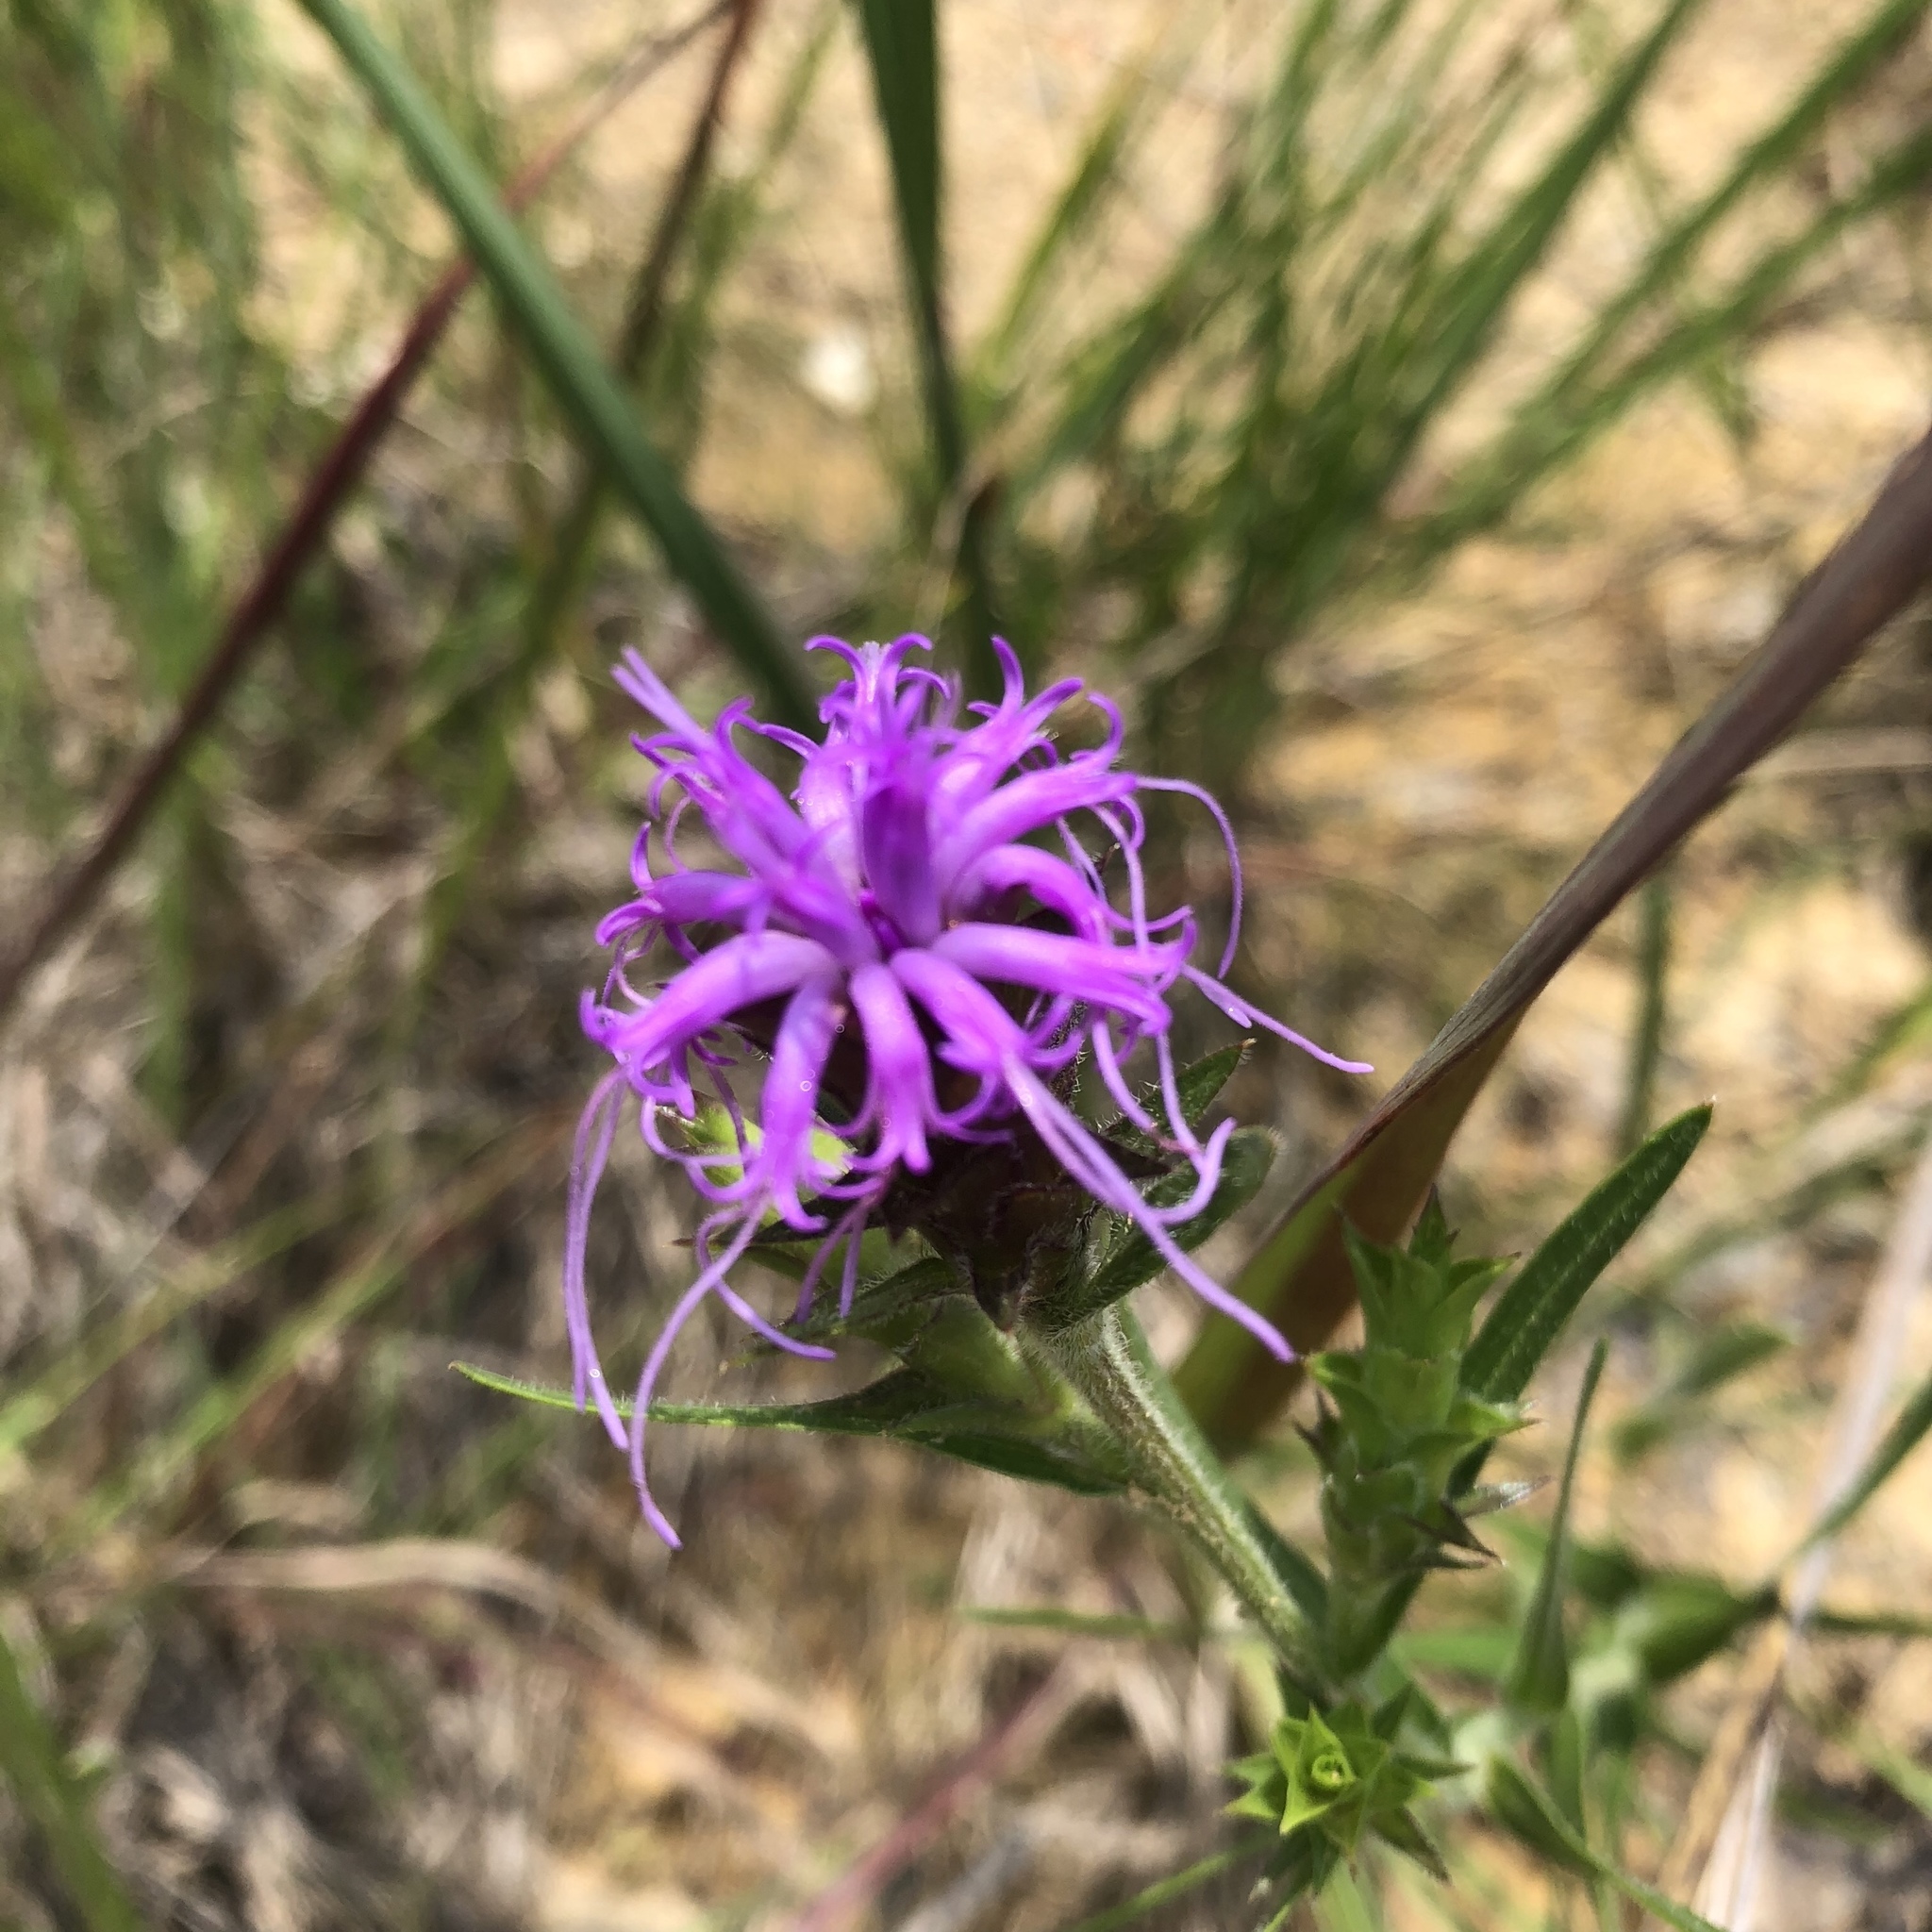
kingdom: Plantae
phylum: Tracheophyta
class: Magnoliopsida
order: Asterales
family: Asteraceae
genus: Liatris
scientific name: Liatris squarrosa
